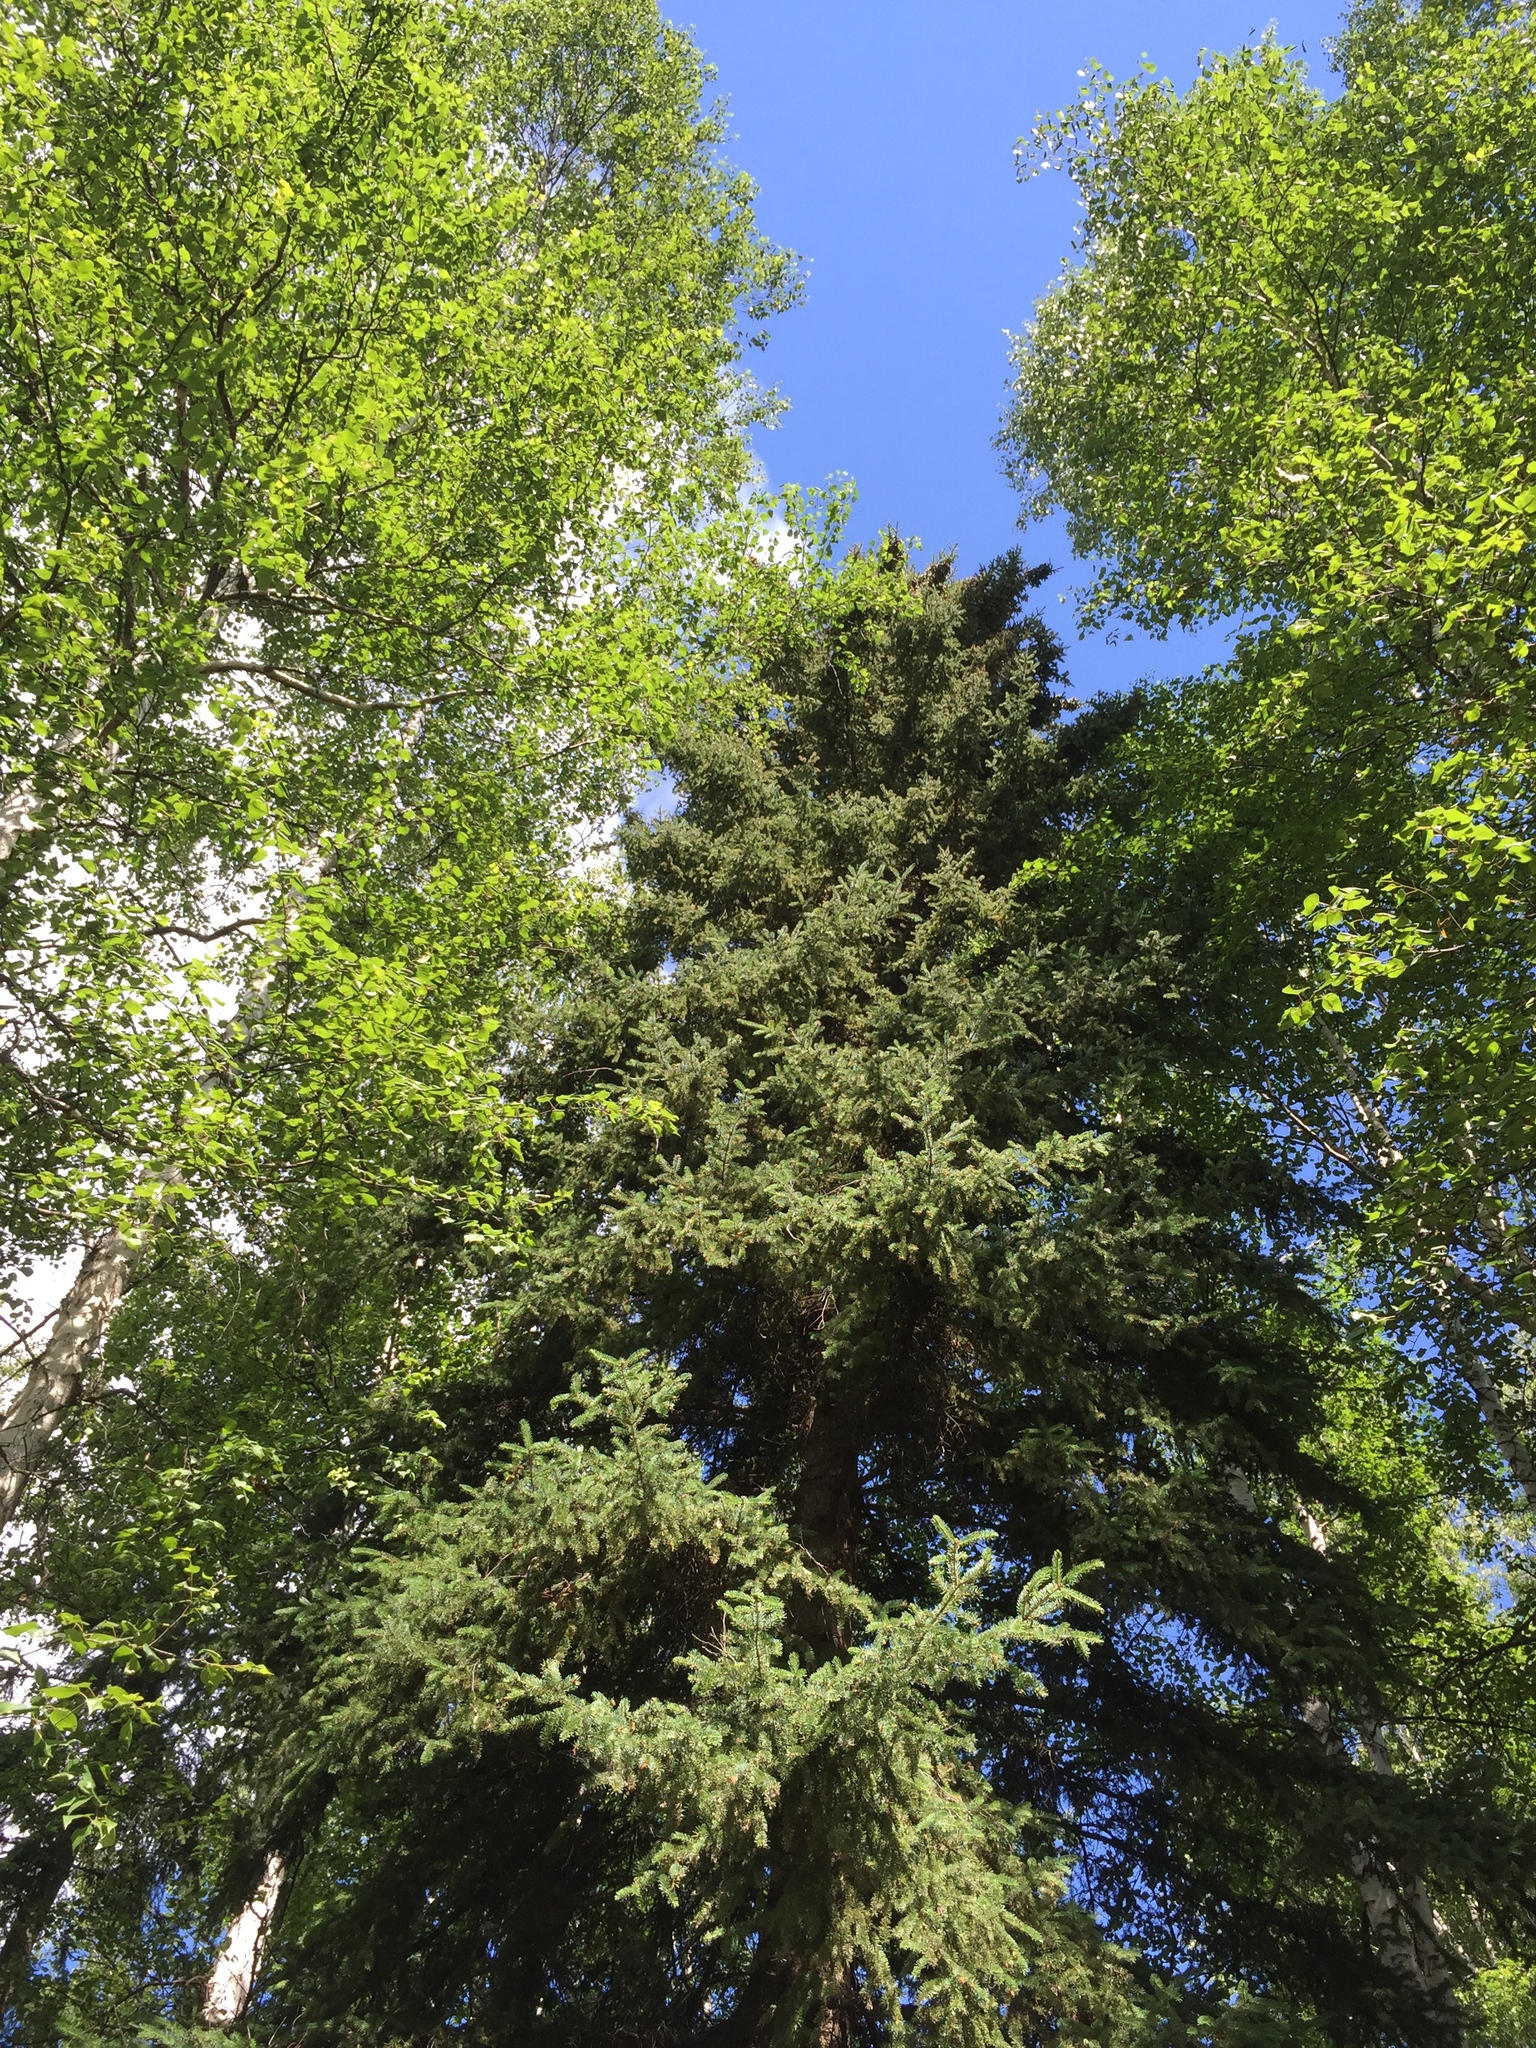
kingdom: Plantae
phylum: Tracheophyta
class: Pinopsida
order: Pinales
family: Pinaceae
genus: Picea
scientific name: Picea glauca
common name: White spruce
